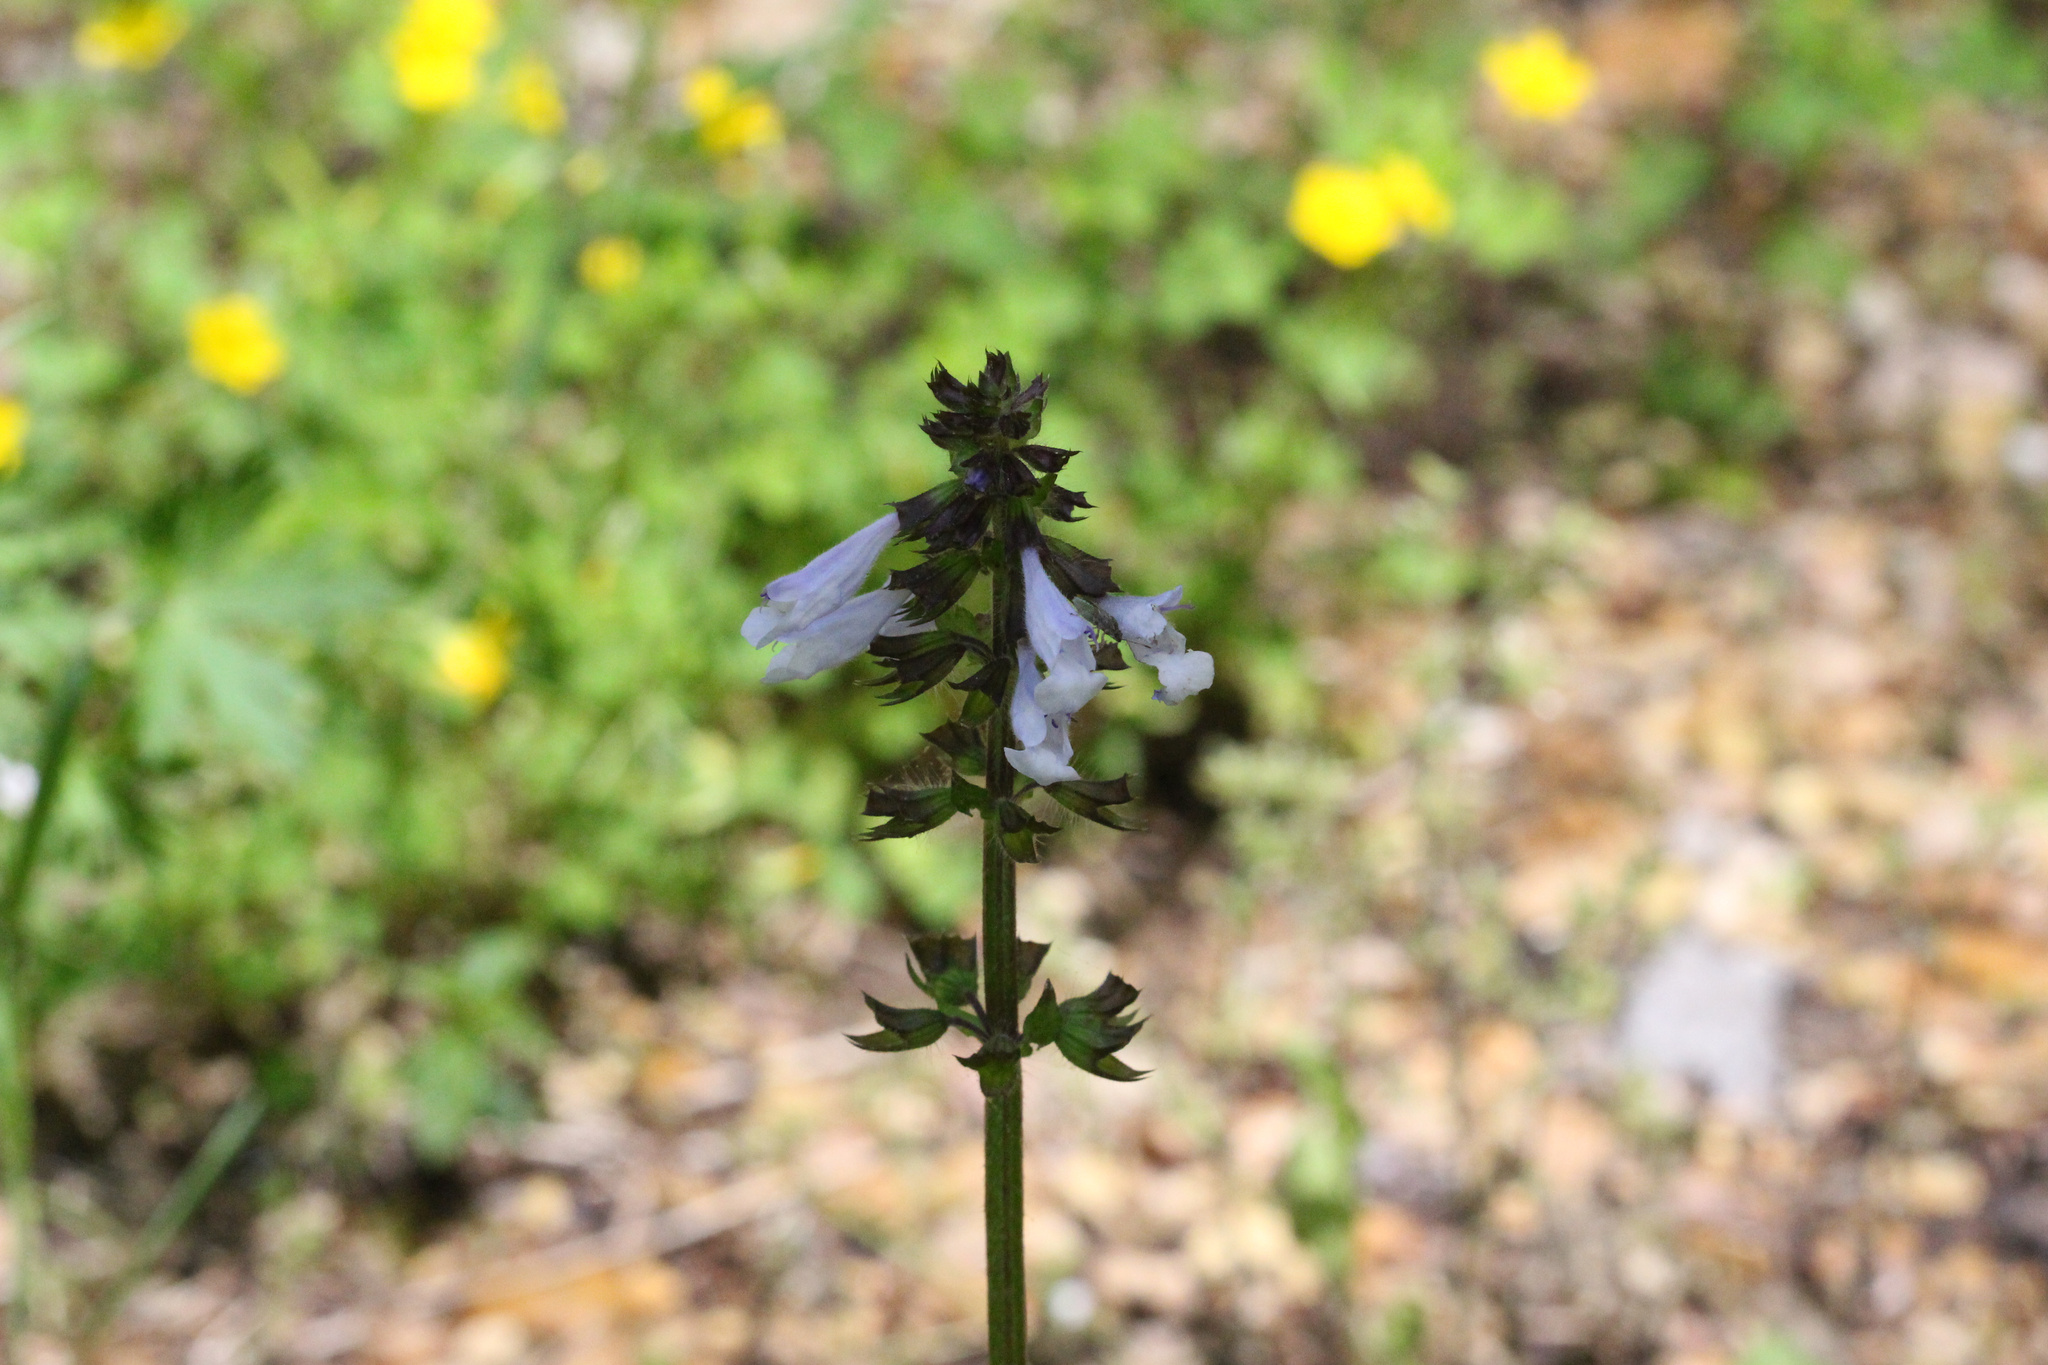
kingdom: Plantae
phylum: Tracheophyta
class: Magnoliopsida
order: Lamiales
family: Lamiaceae
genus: Salvia
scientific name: Salvia lyrata
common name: Cancerweed
